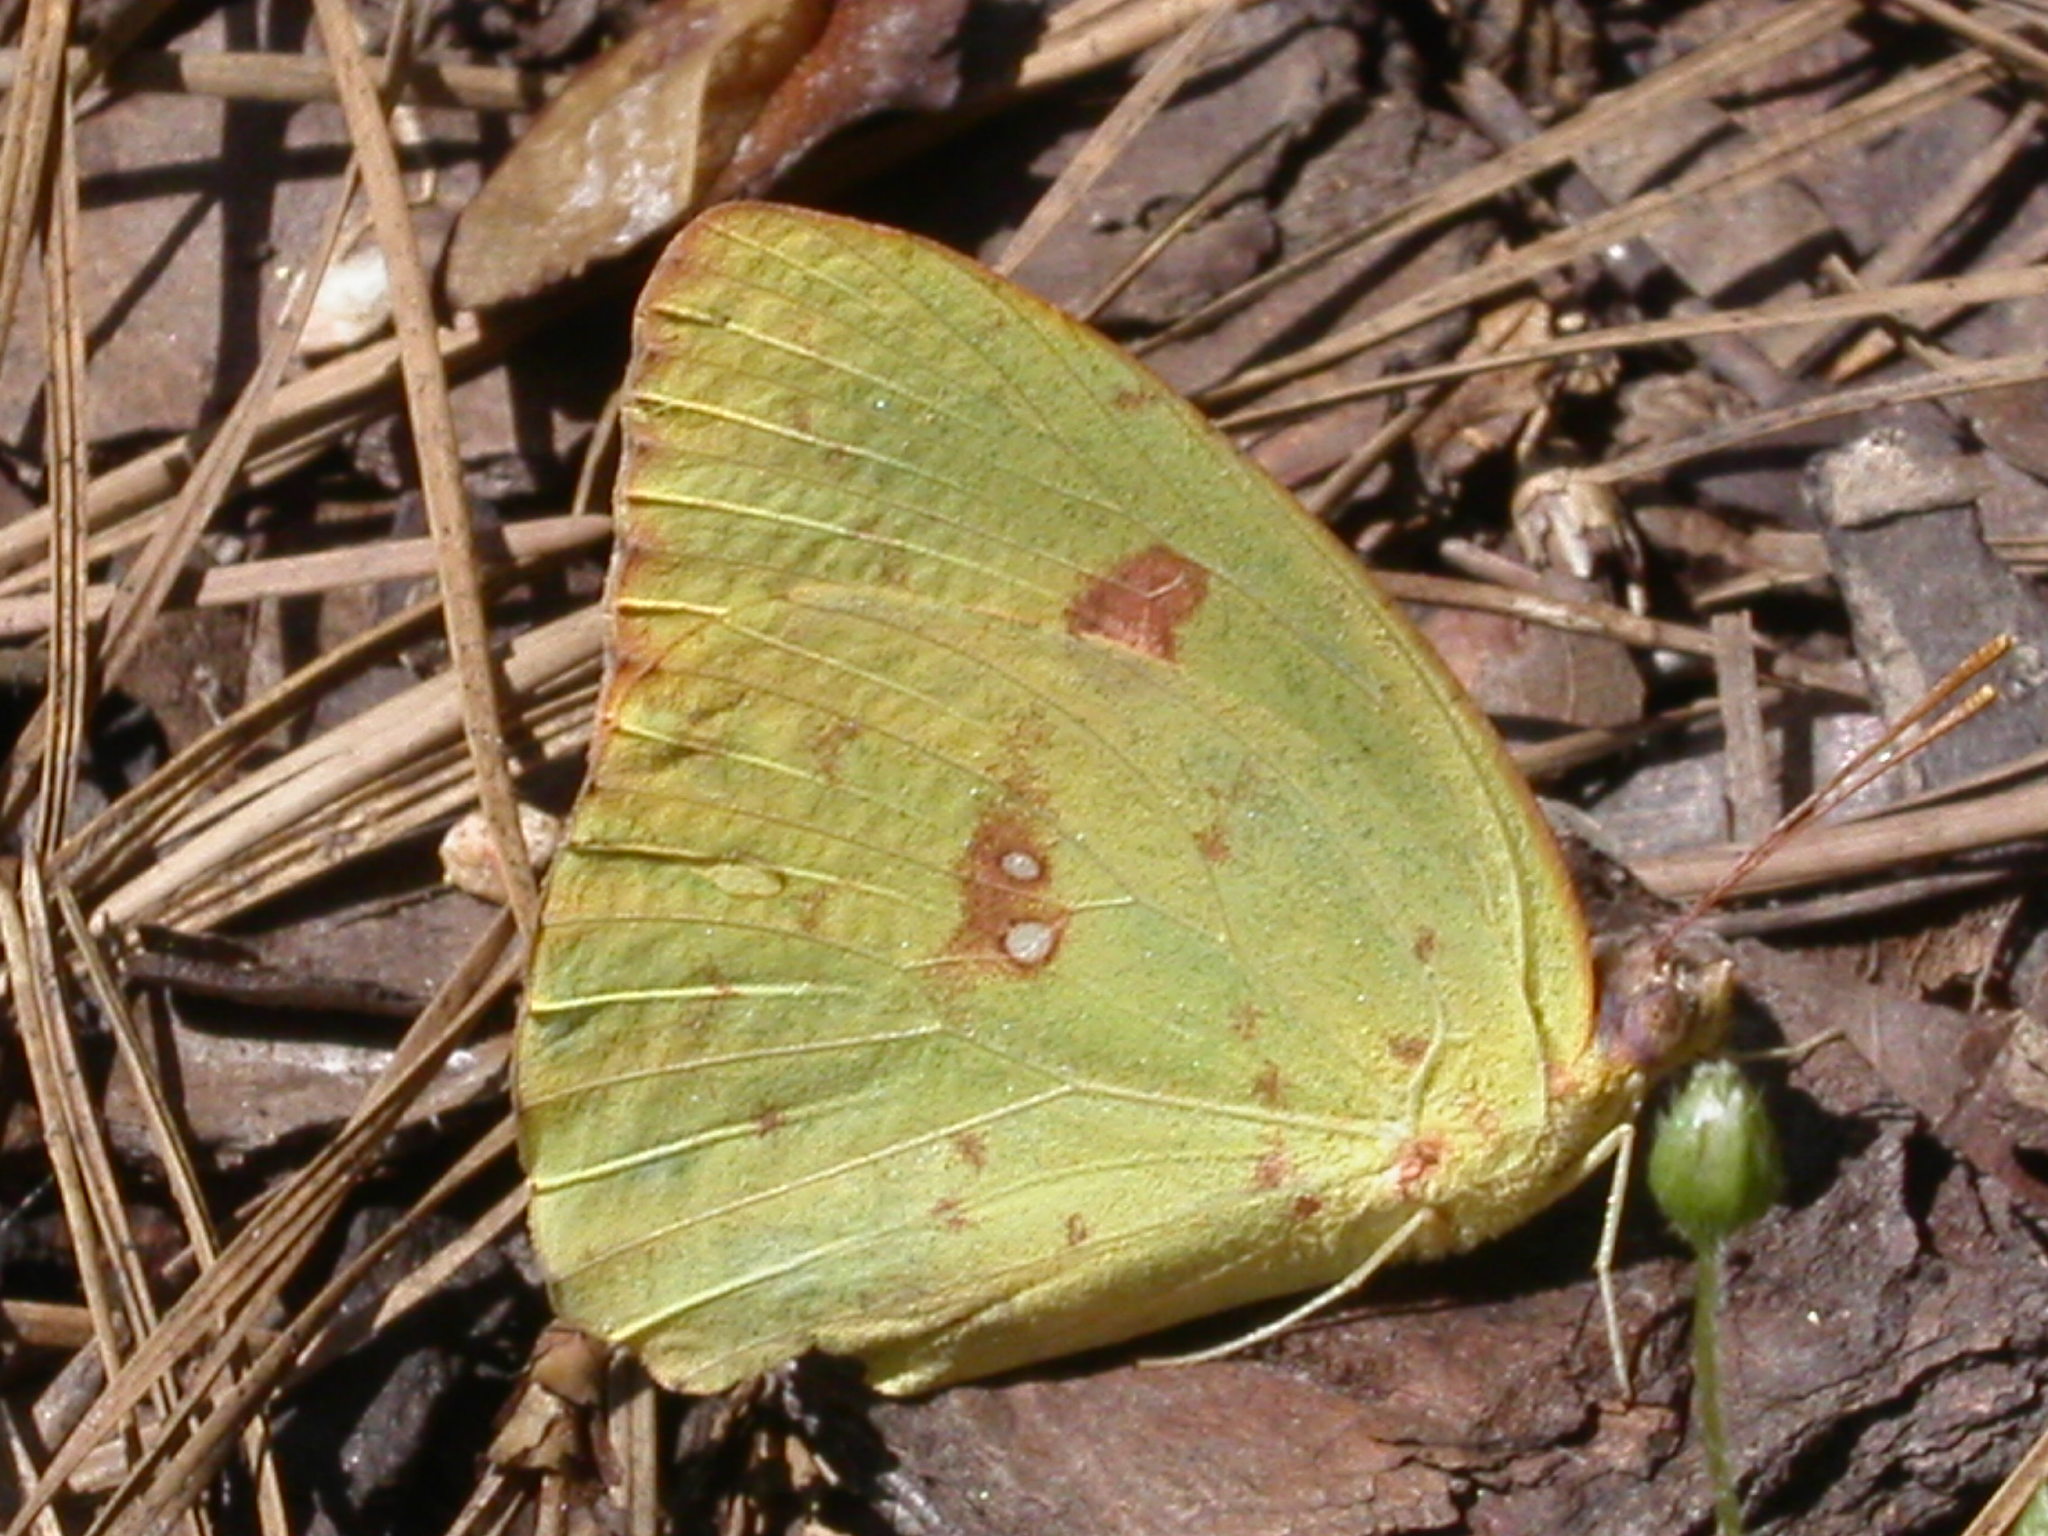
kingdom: Animalia
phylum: Arthropoda
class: Insecta
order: Lepidoptera
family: Pieridae
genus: Phoebis
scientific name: Phoebis sennae
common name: Cloudless sulphur
